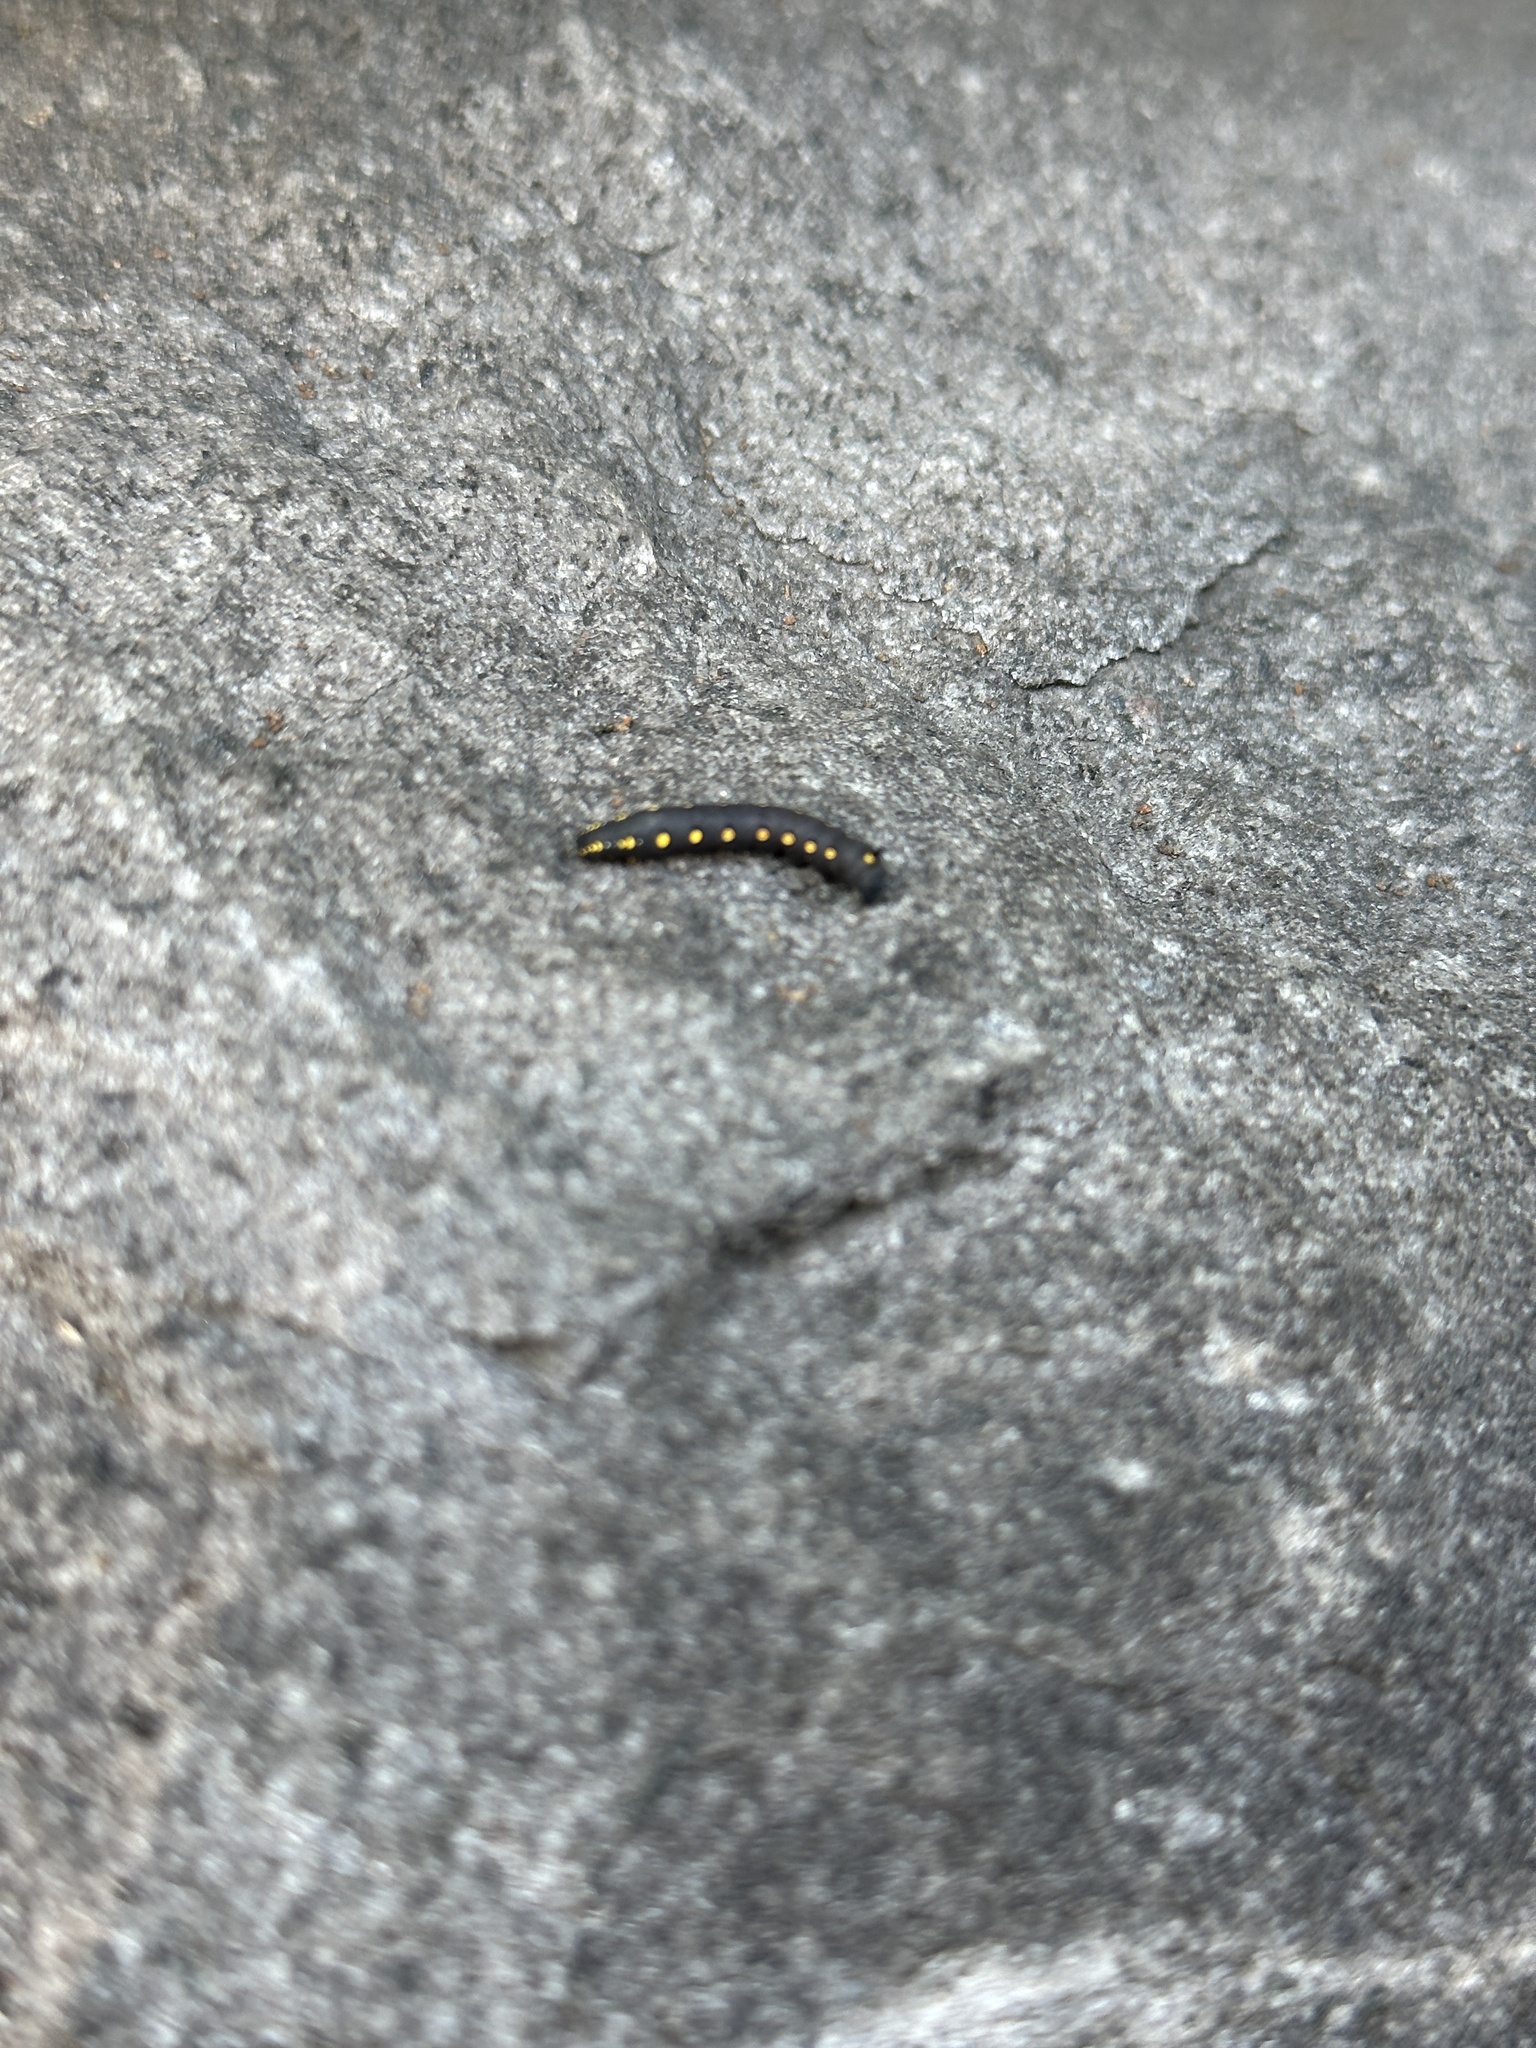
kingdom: Animalia
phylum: Arthropoda
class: Insecta
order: Lepidoptera
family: Sphingidae
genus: Theretra
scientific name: Theretra oldenlandiae
